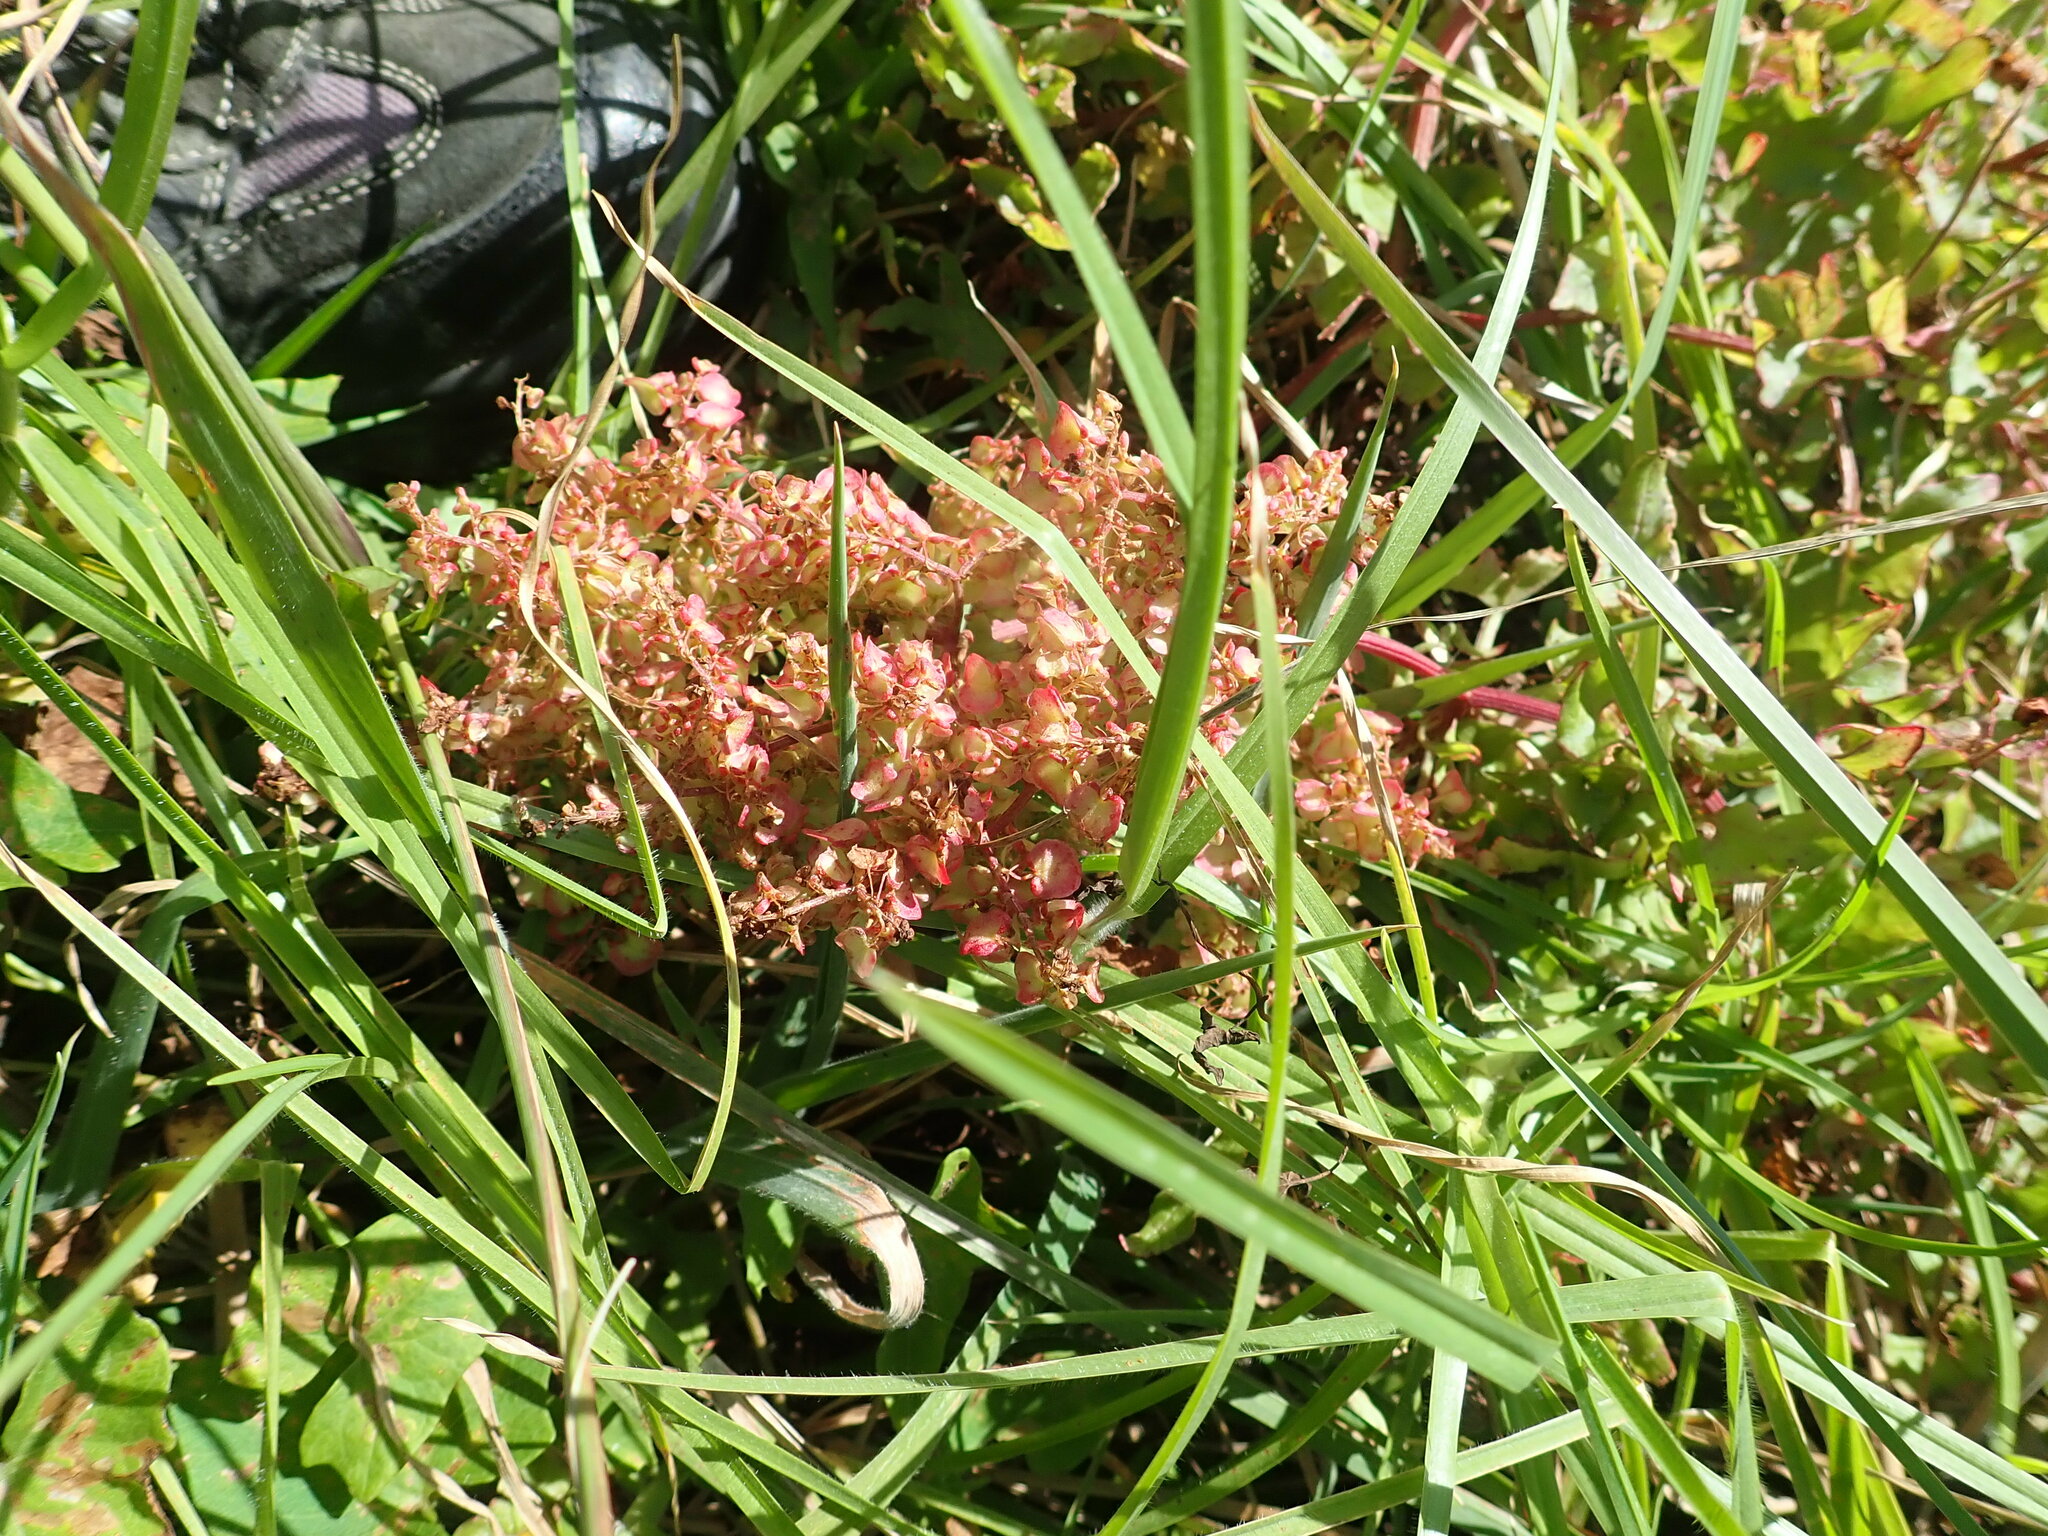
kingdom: Plantae
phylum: Tracheophyta
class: Magnoliopsida
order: Caryophyllales
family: Polygonaceae
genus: Rumex
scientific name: Rumex sagittatus
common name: Climbing dock
